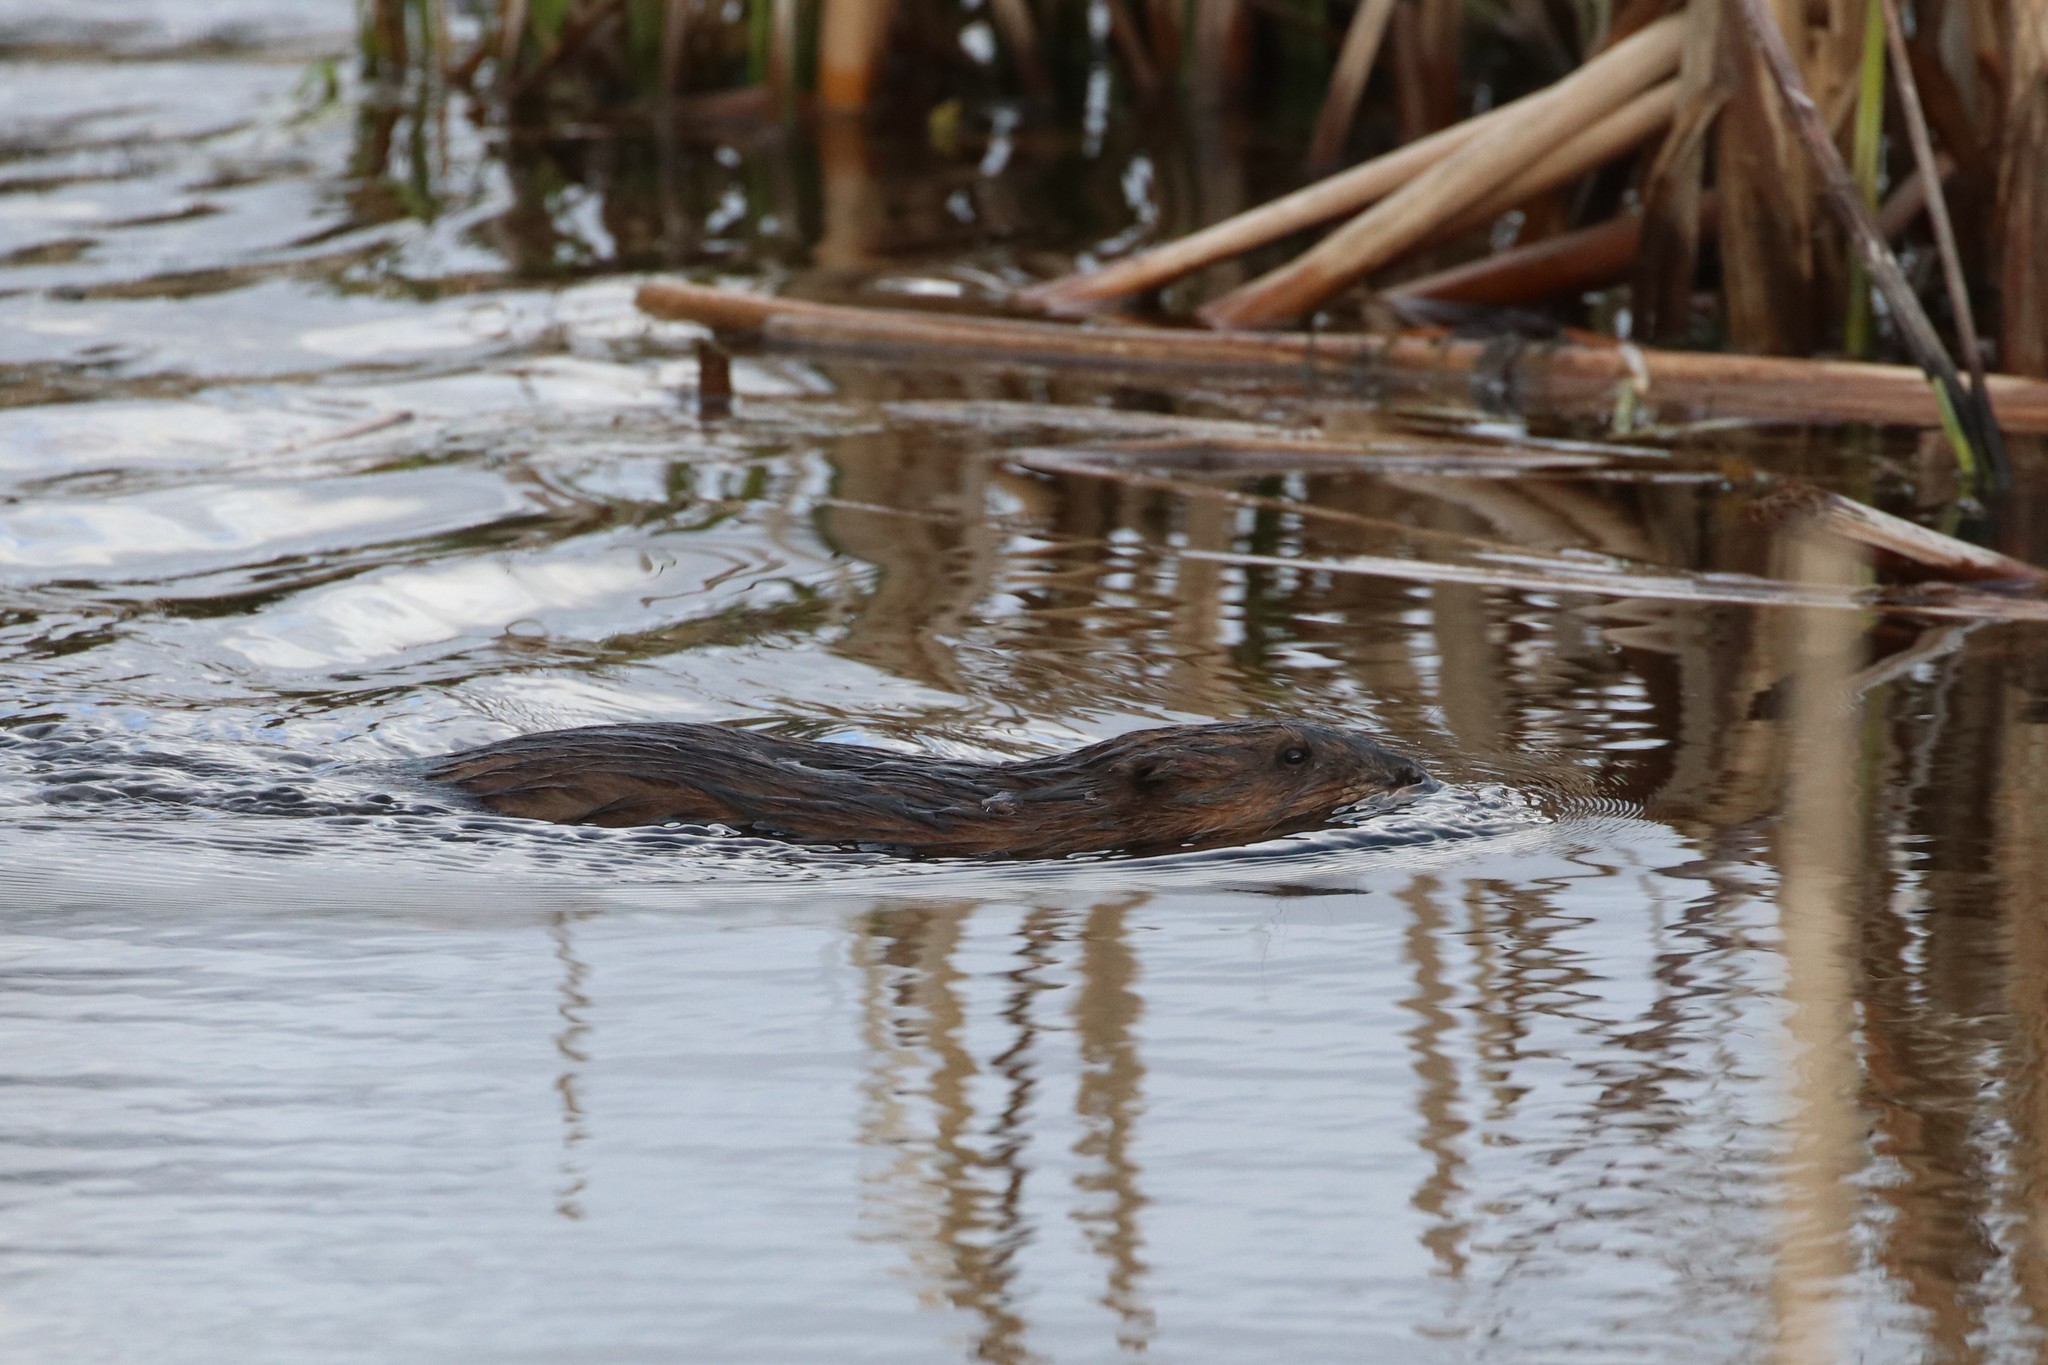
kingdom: Animalia
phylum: Chordata
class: Mammalia
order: Rodentia
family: Cricetidae
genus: Ondatra
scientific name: Ondatra zibethicus
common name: Muskrat
